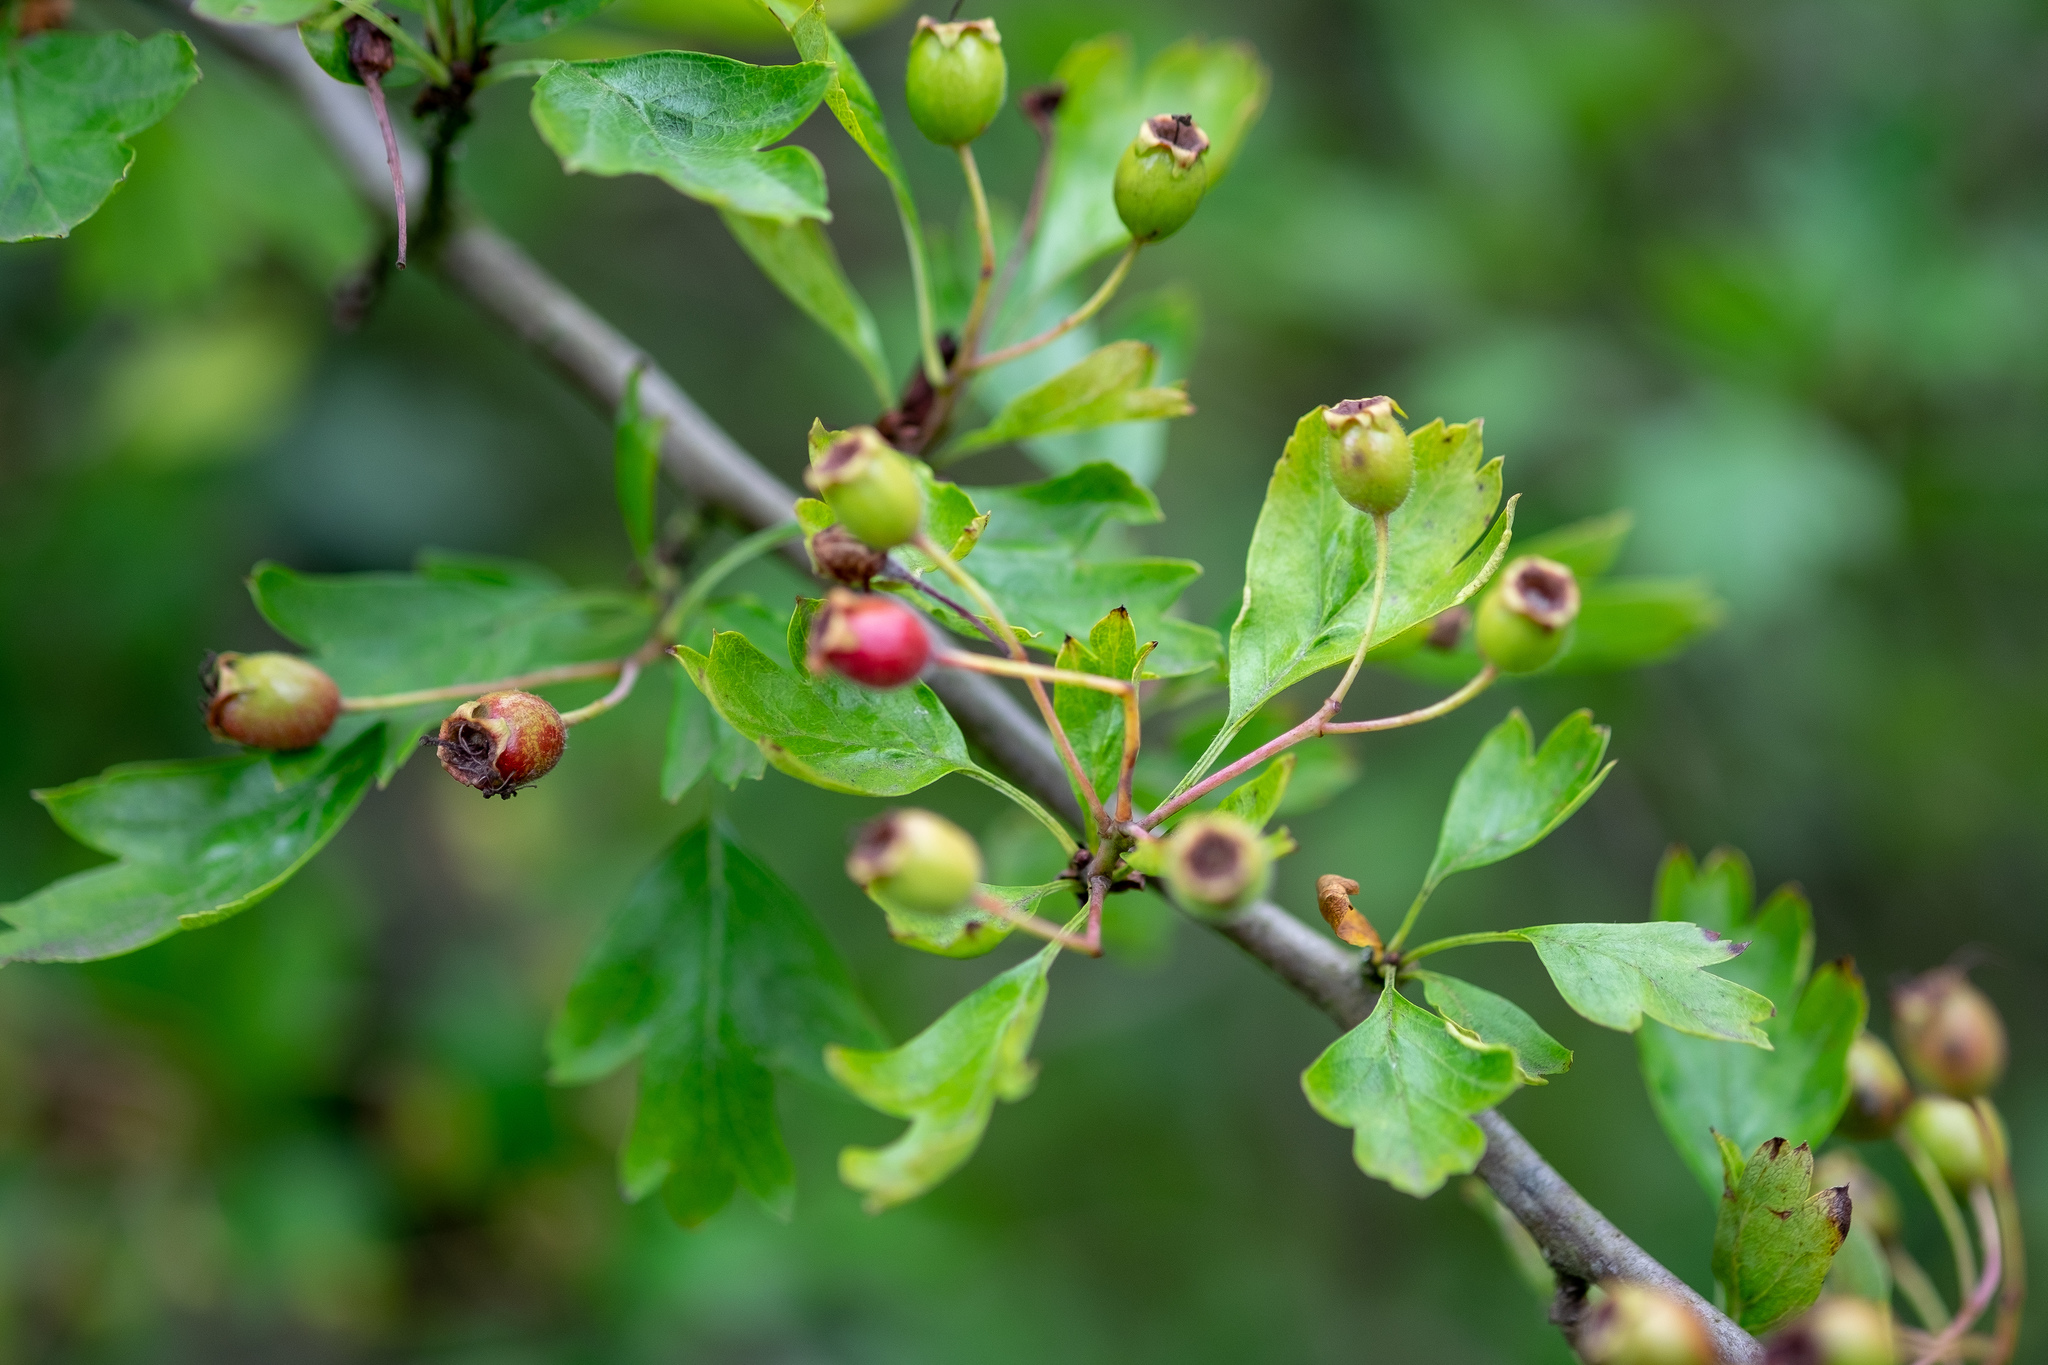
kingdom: Plantae
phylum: Tracheophyta
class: Magnoliopsida
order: Rosales
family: Rosaceae
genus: Crataegus
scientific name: Crataegus monogyna
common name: Hawthorn
